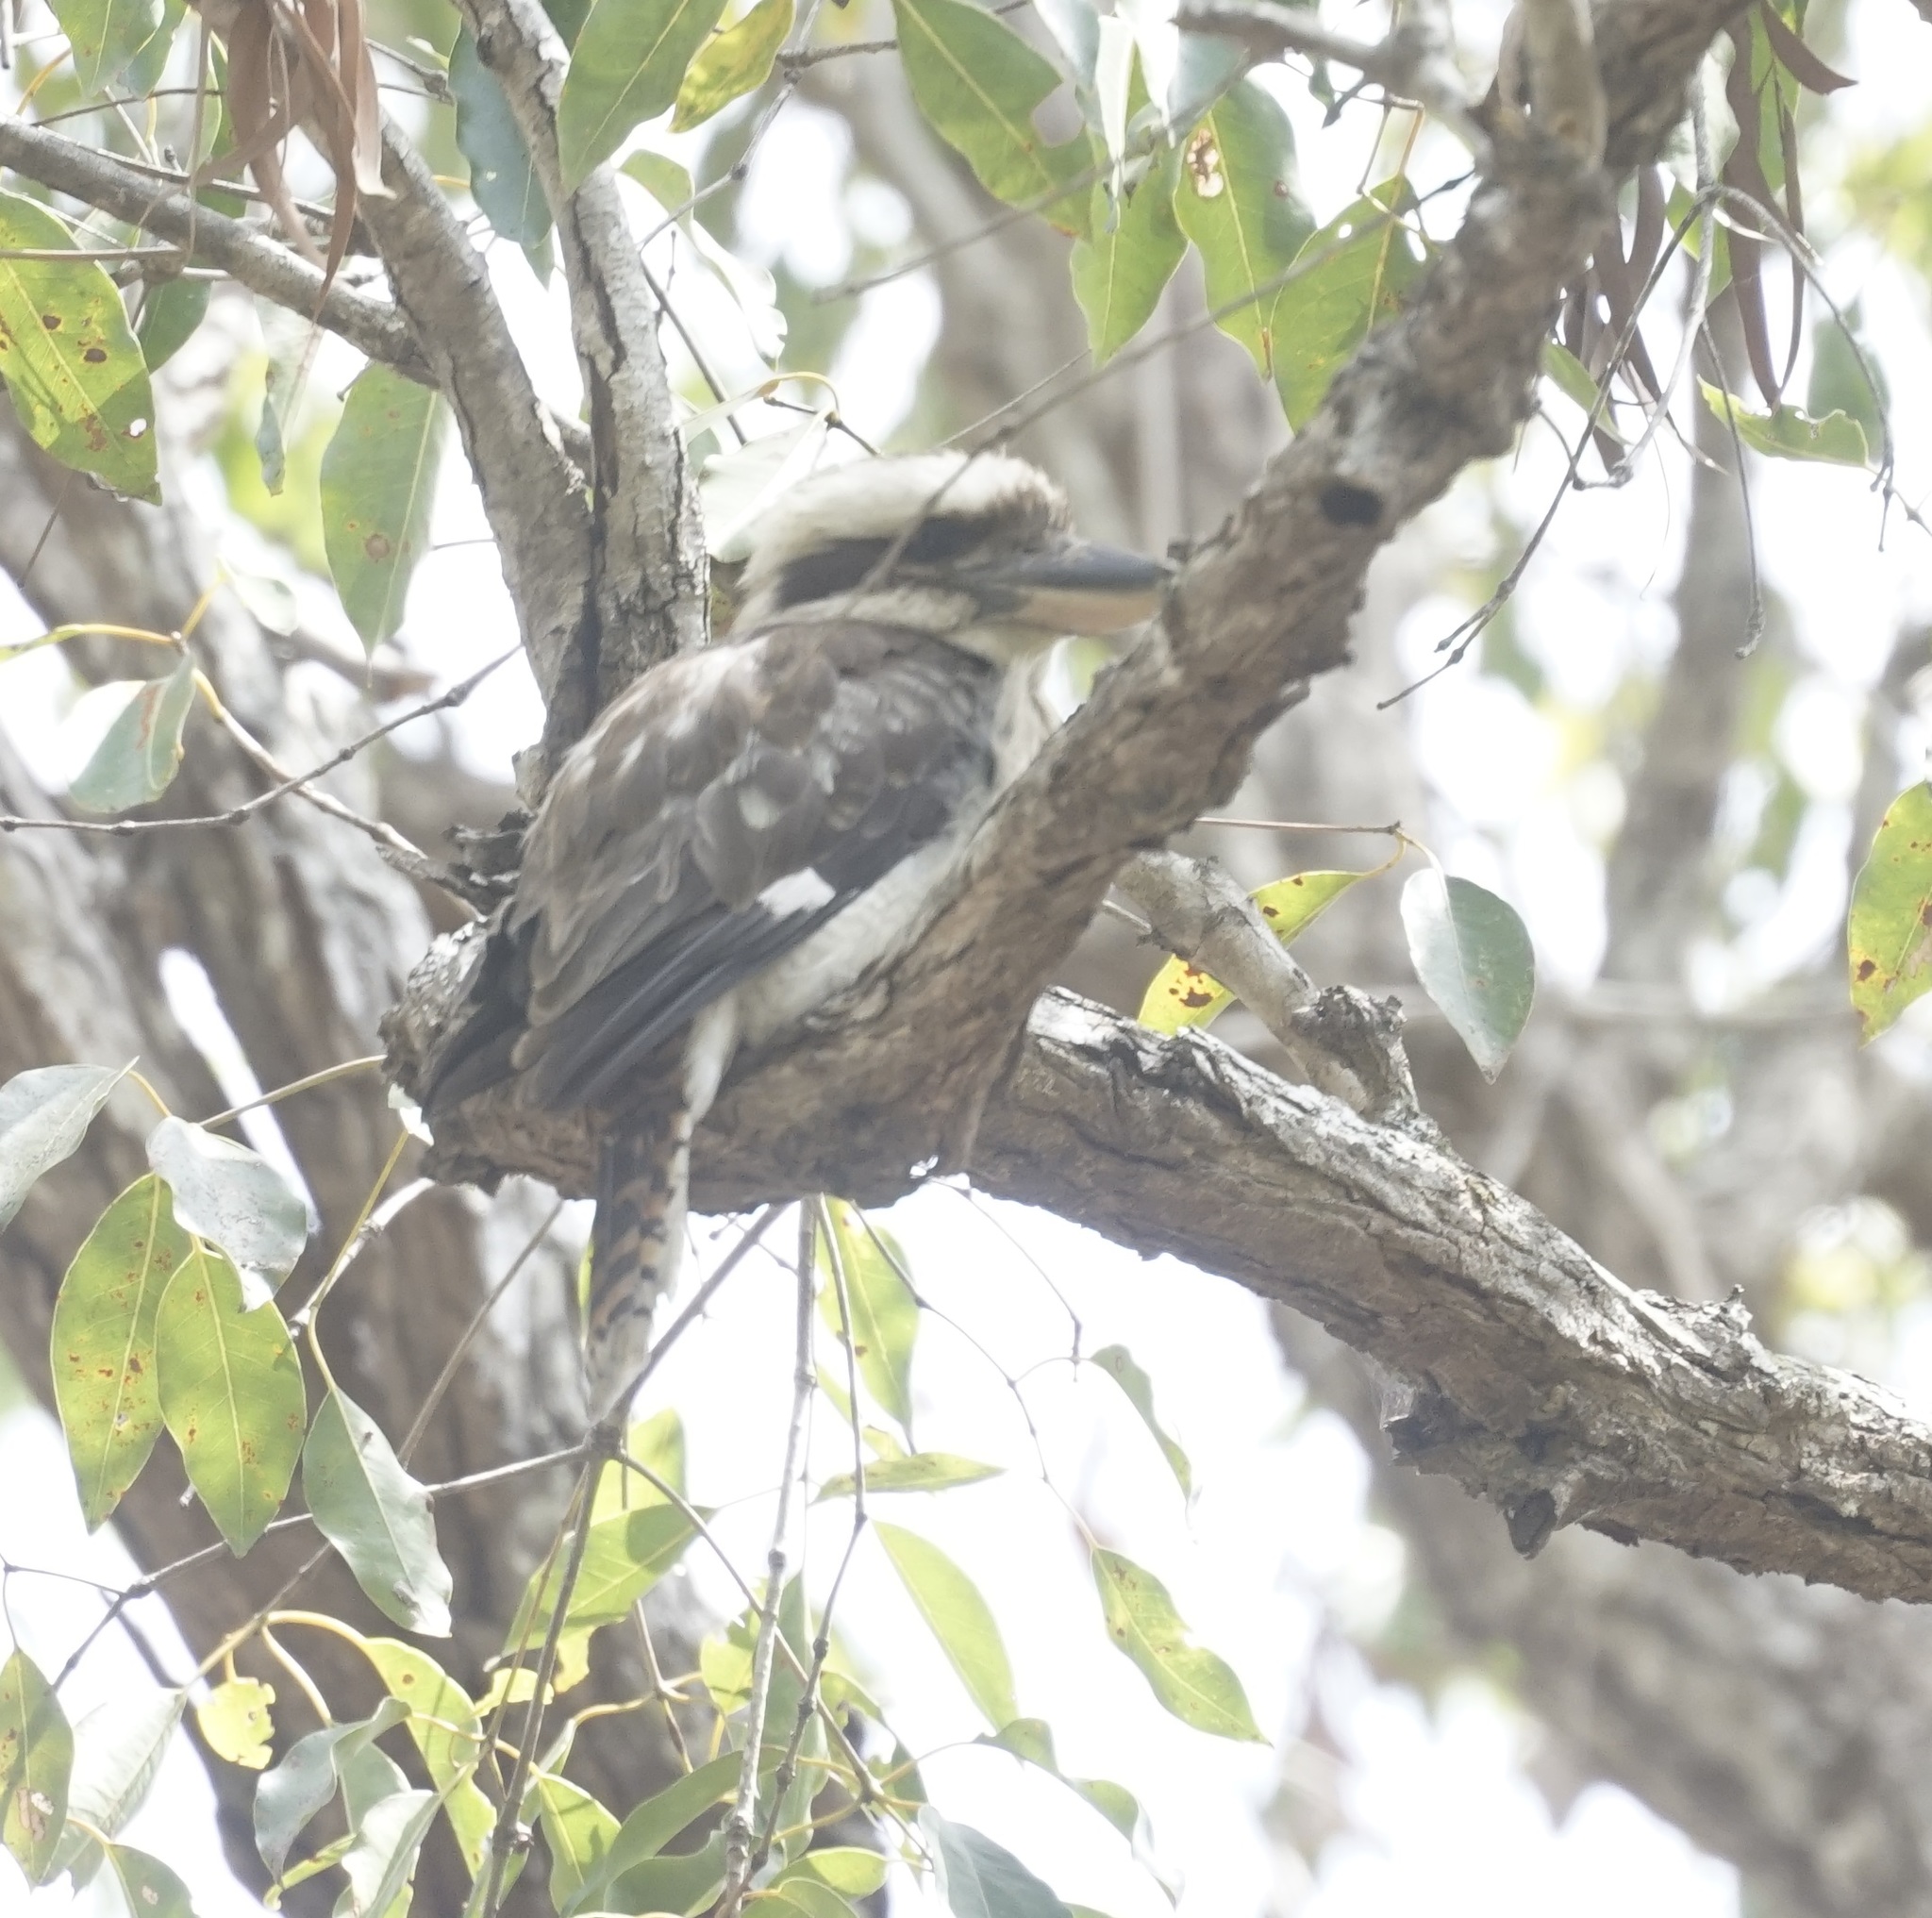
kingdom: Animalia
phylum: Chordata
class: Aves
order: Coraciiformes
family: Alcedinidae
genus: Dacelo
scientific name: Dacelo novaeguineae
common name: Laughing kookaburra
